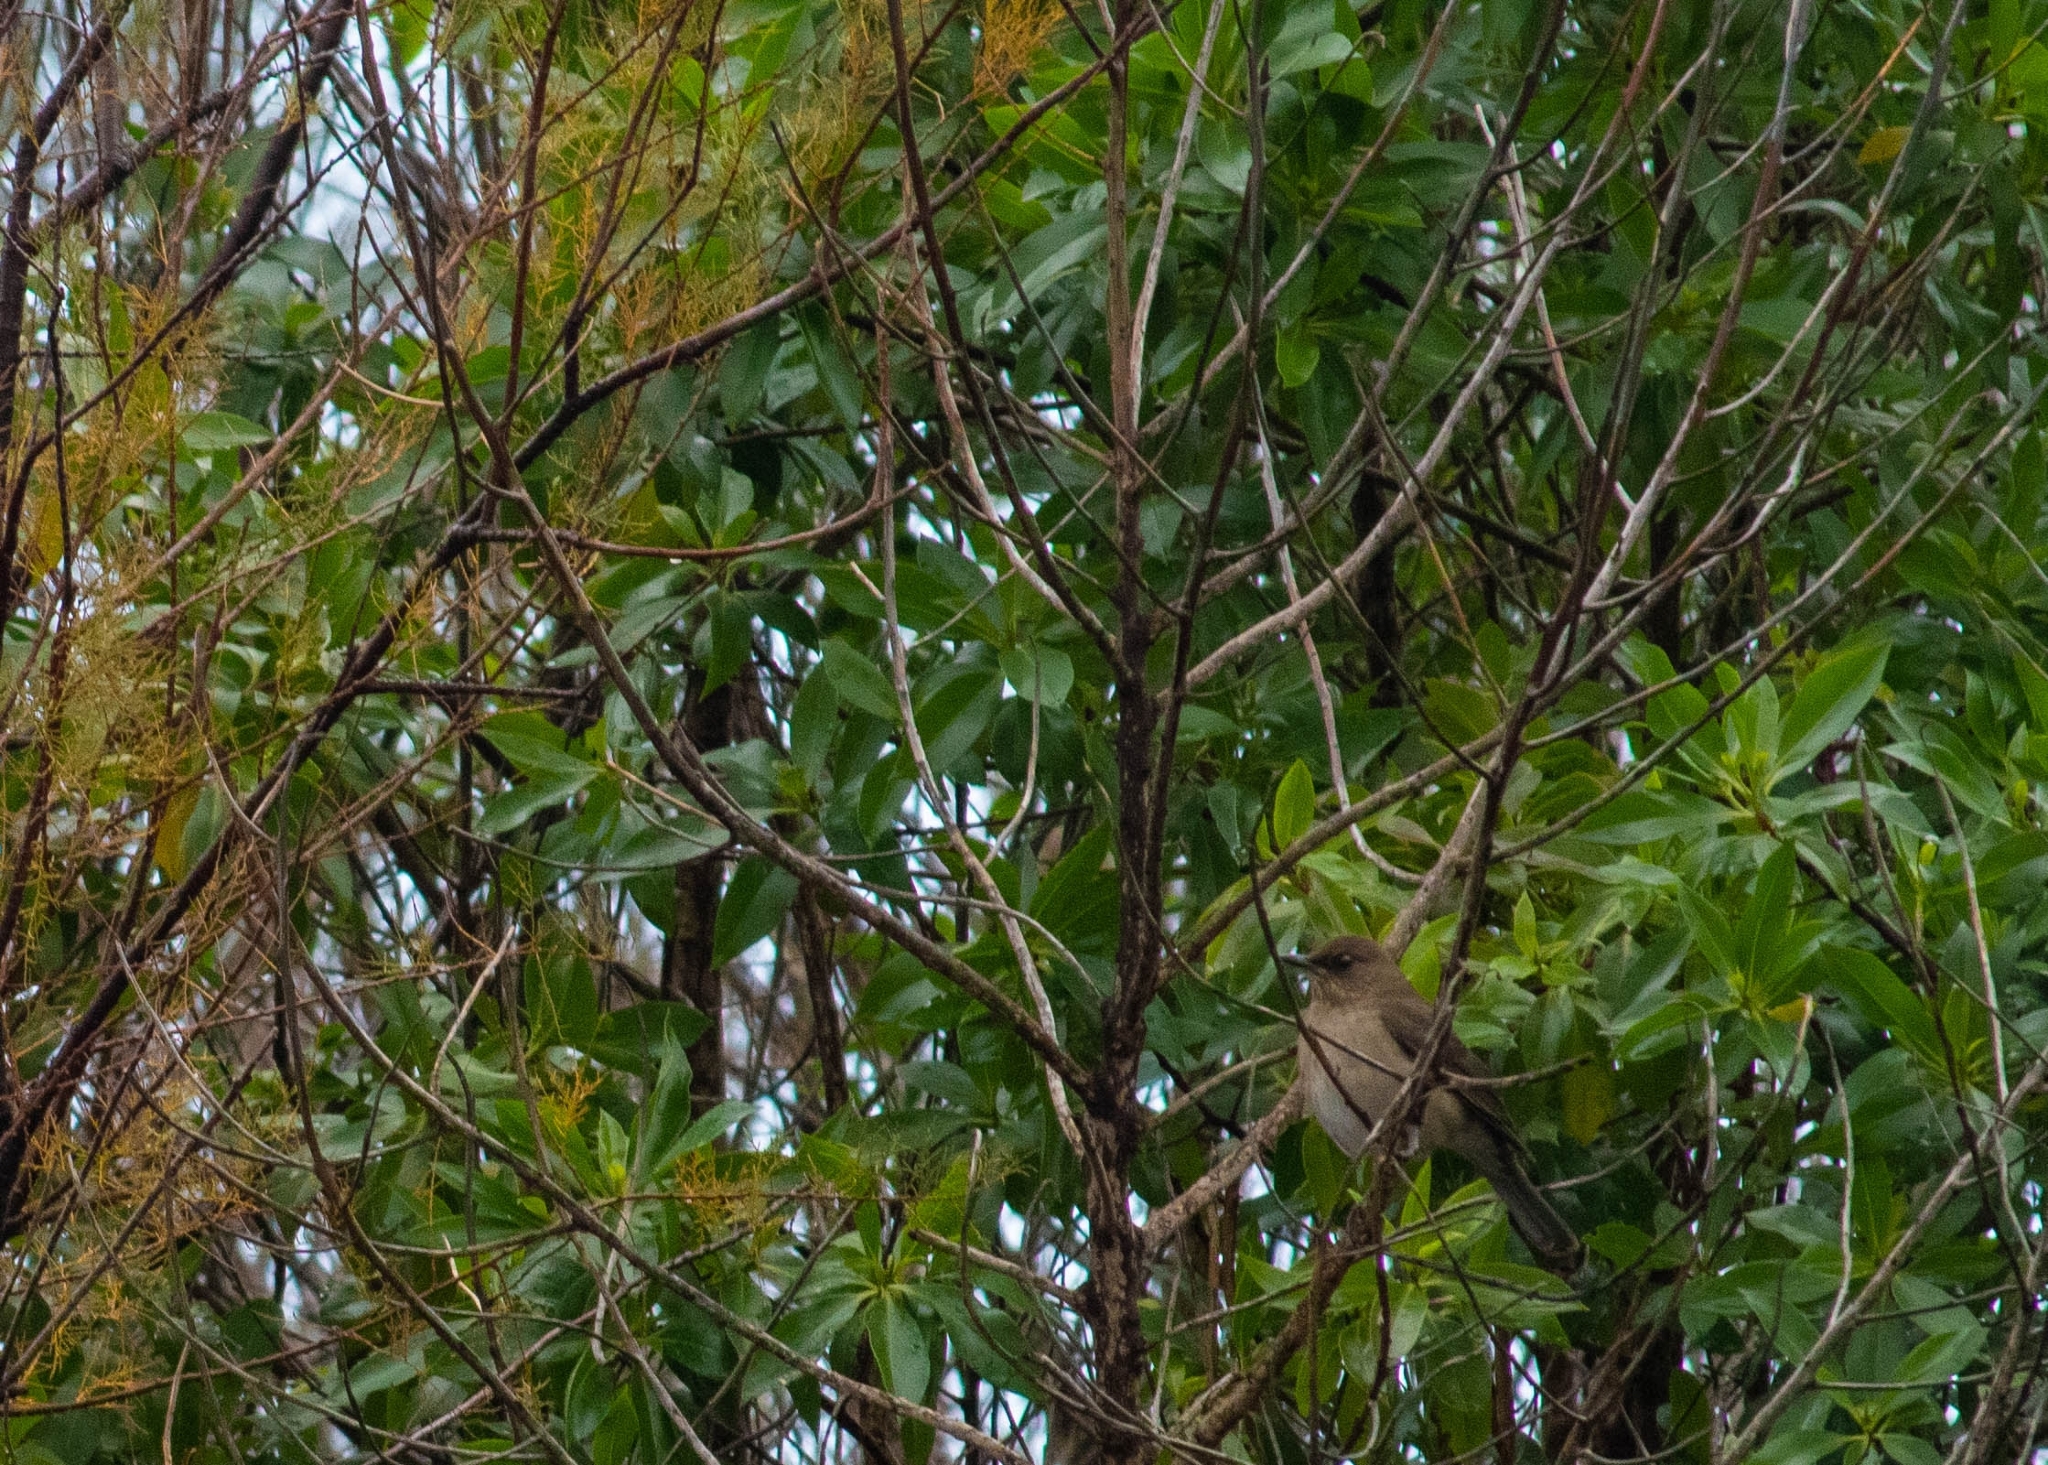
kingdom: Animalia
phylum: Chordata
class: Aves
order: Passeriformes
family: Turdidae
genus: Turdus
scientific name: Turdus amaurochalinus
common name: Creamy-bellied thrush
